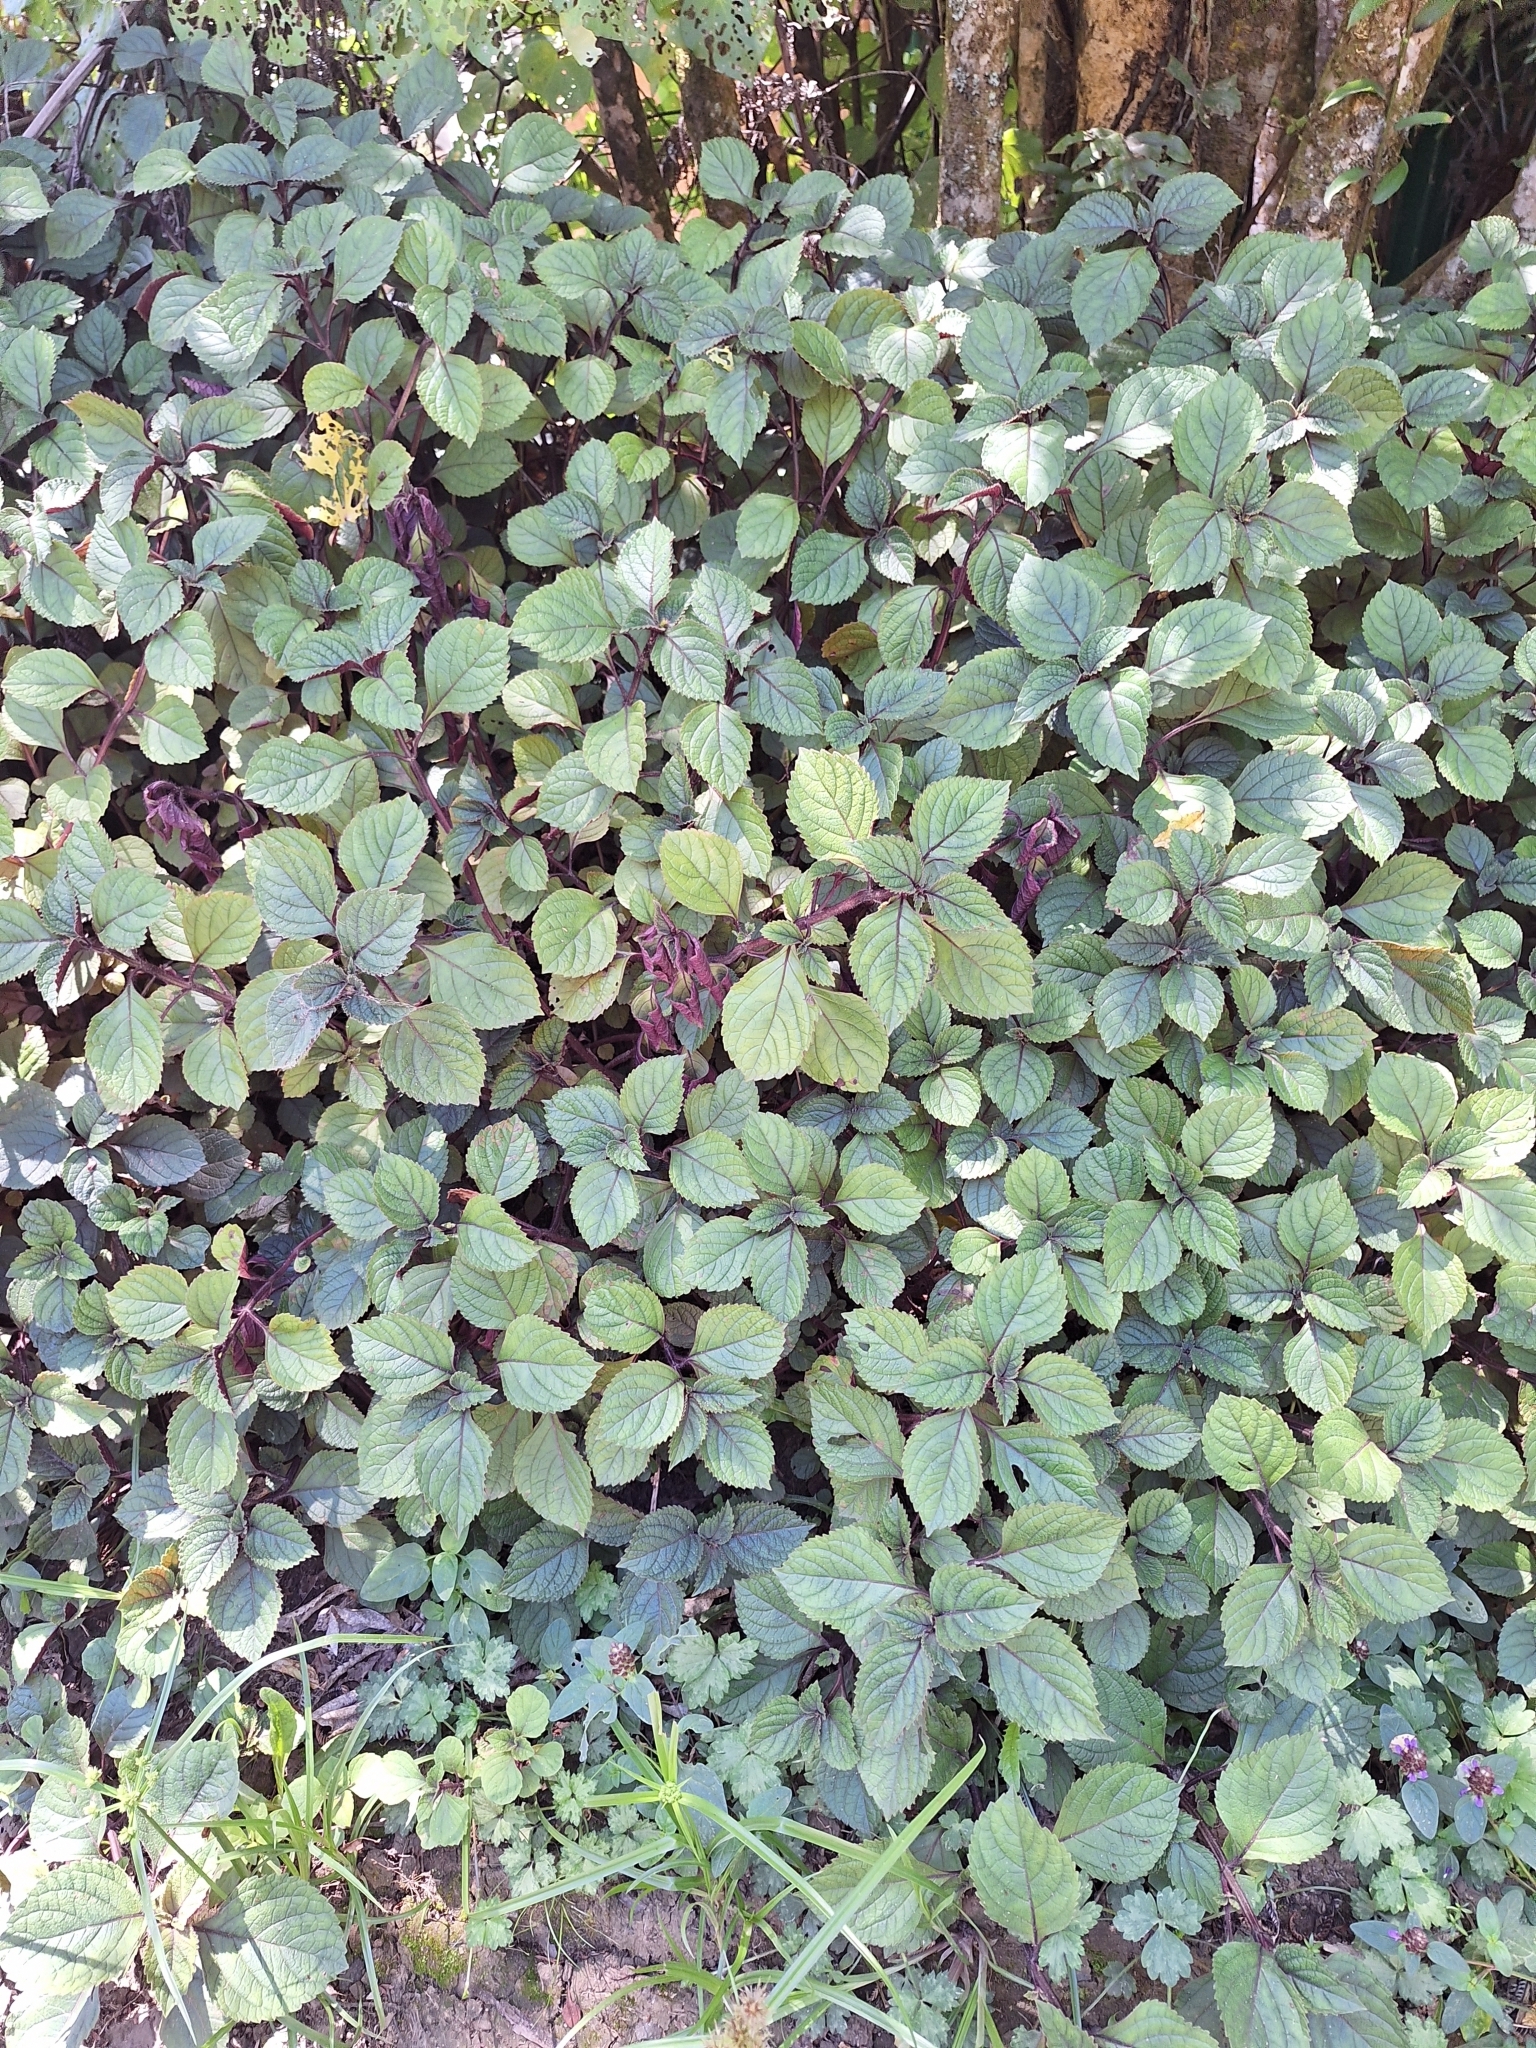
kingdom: Plantae
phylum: Tracheophyta
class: Magnoliopsida
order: Lamiales
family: Lamiaceae
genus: Plectranthus
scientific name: Plectranthus ciliatus
